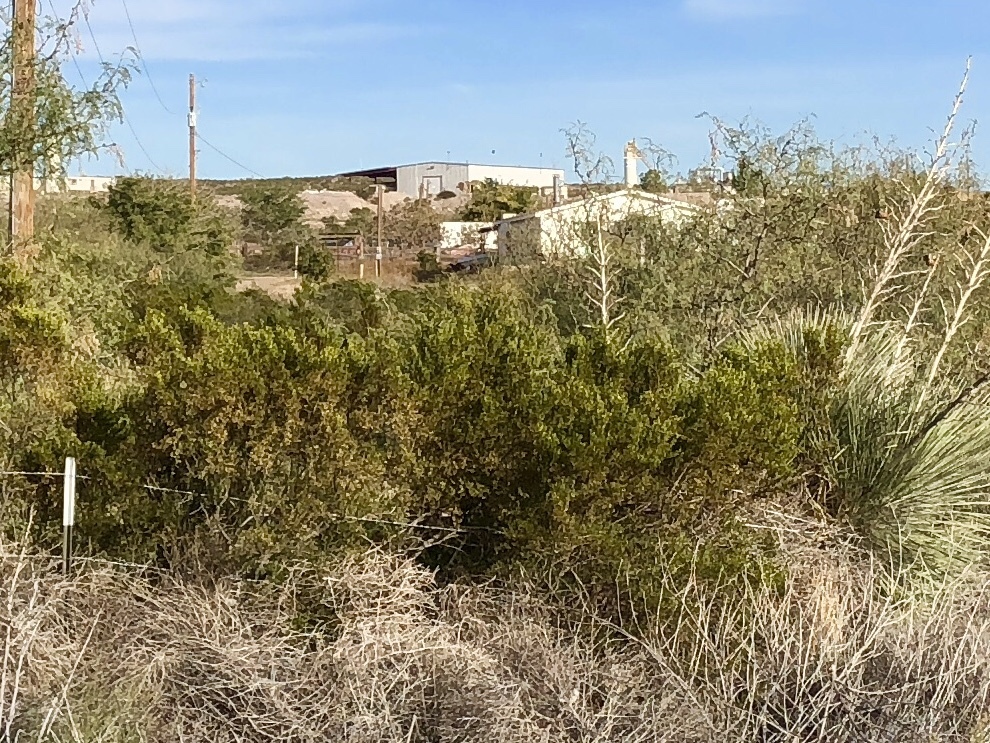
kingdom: Plantae
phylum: Tracheophyta
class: Magnoliopsida
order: Zygophyllales
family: Zygophyllaceae
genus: Larrea
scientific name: Larrea tridentata
